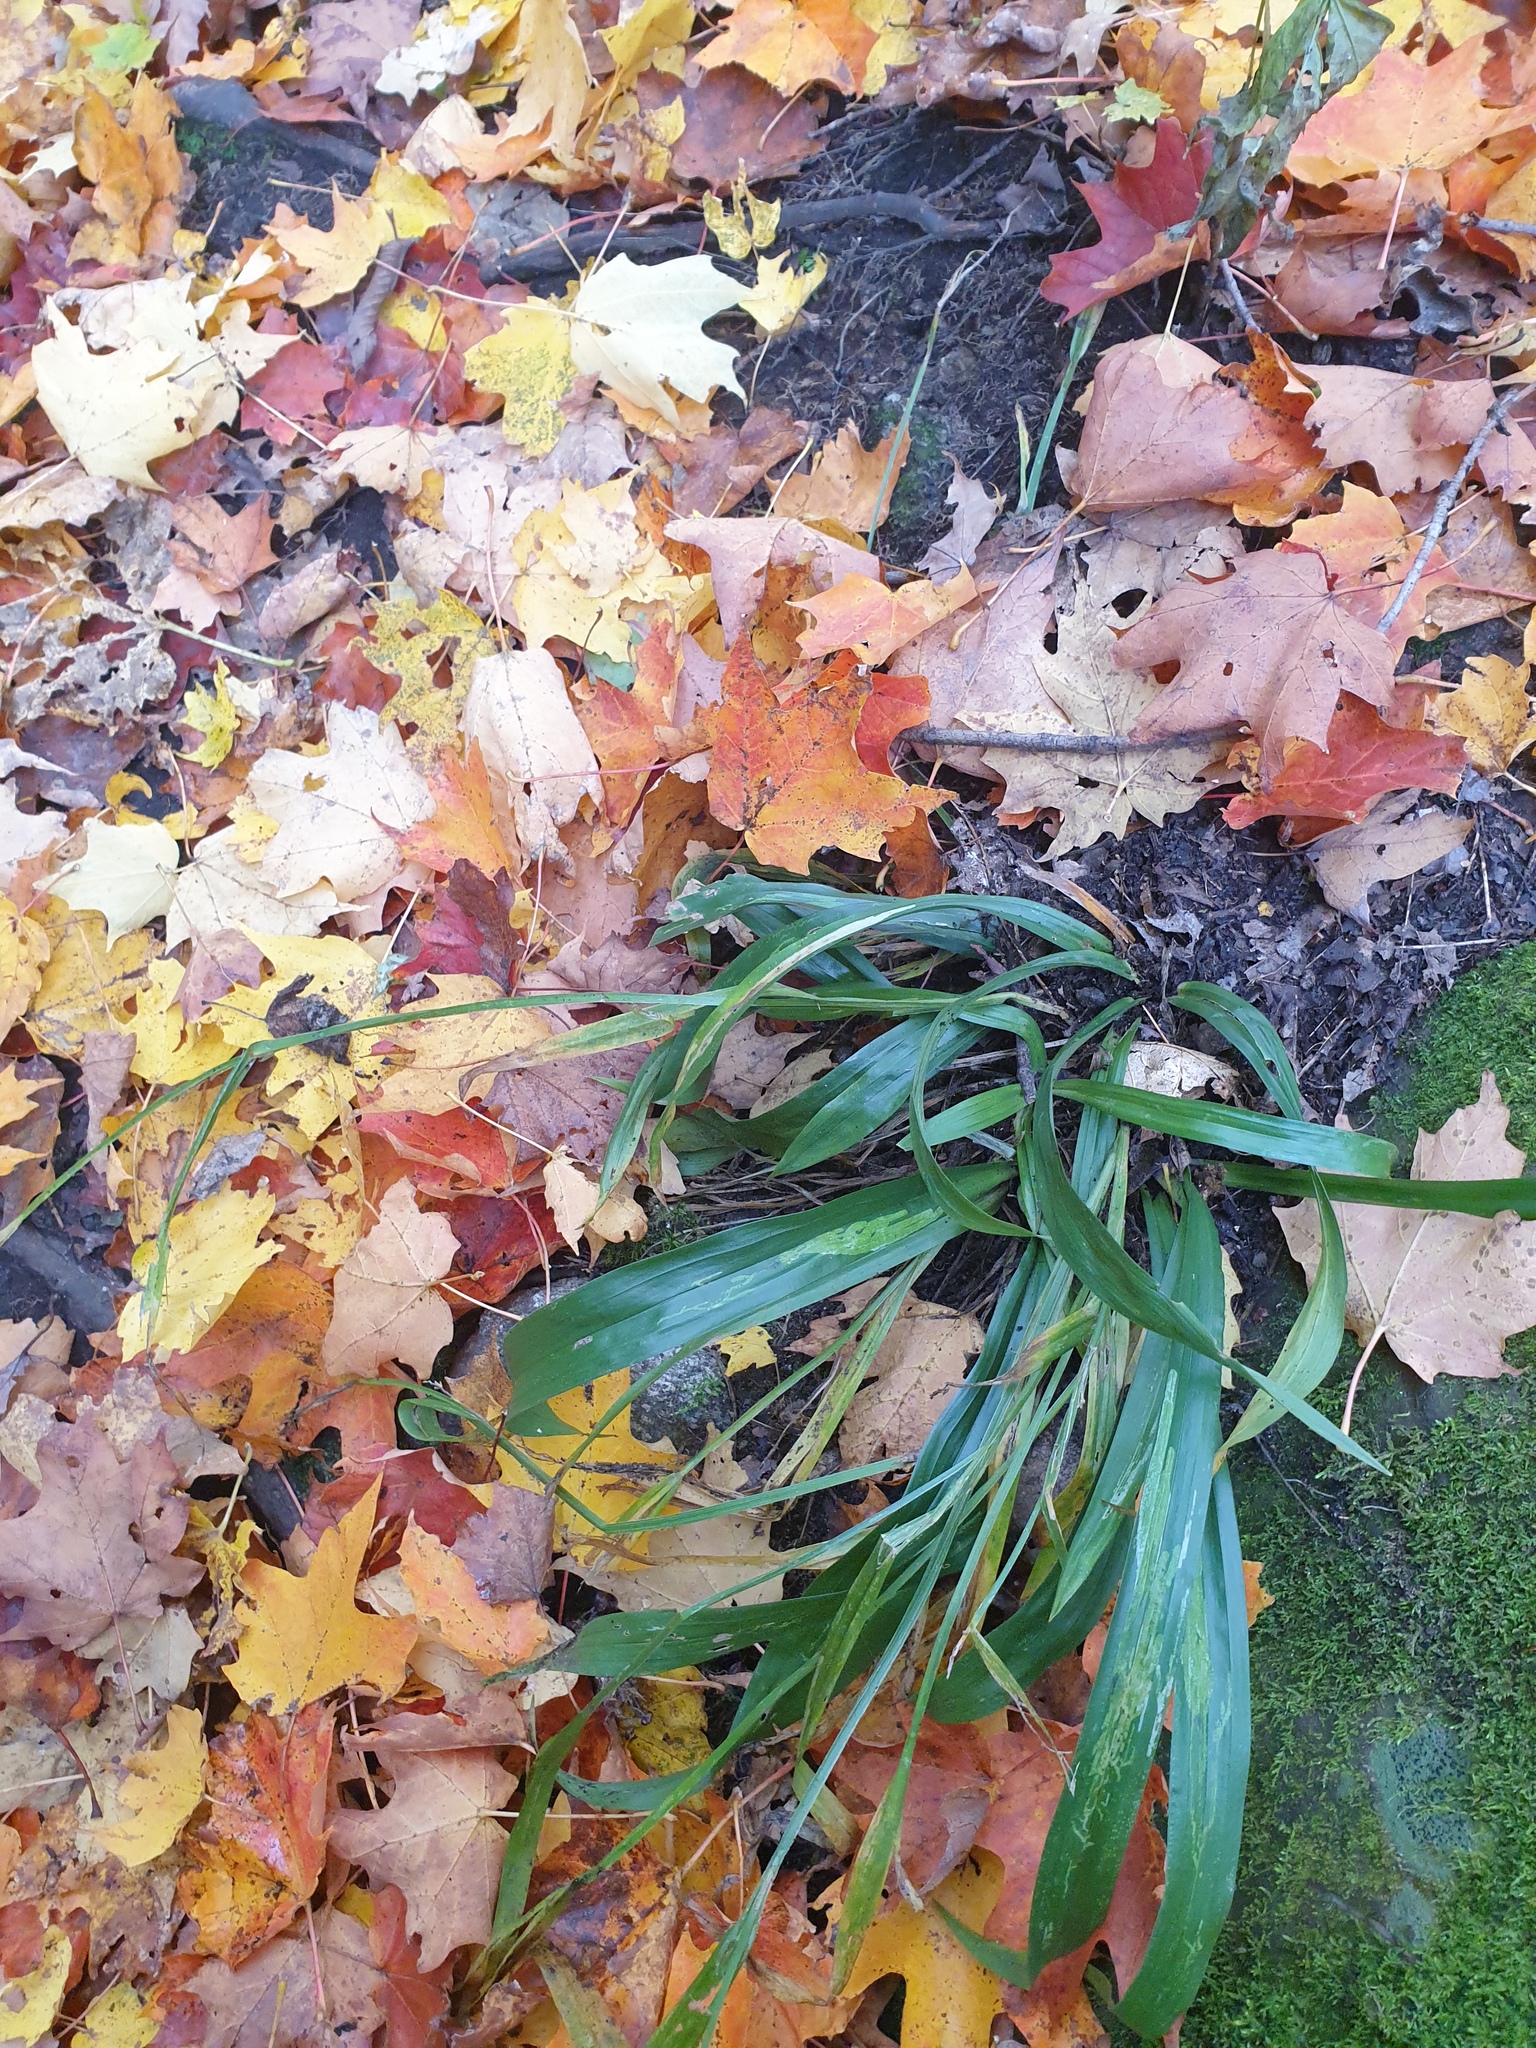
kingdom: Plantae
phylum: Tracheophyta
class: Liliopsida
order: Poales
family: Cyperaceae
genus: Carex
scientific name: Carex albursina
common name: Blunt-scale wood sedge
